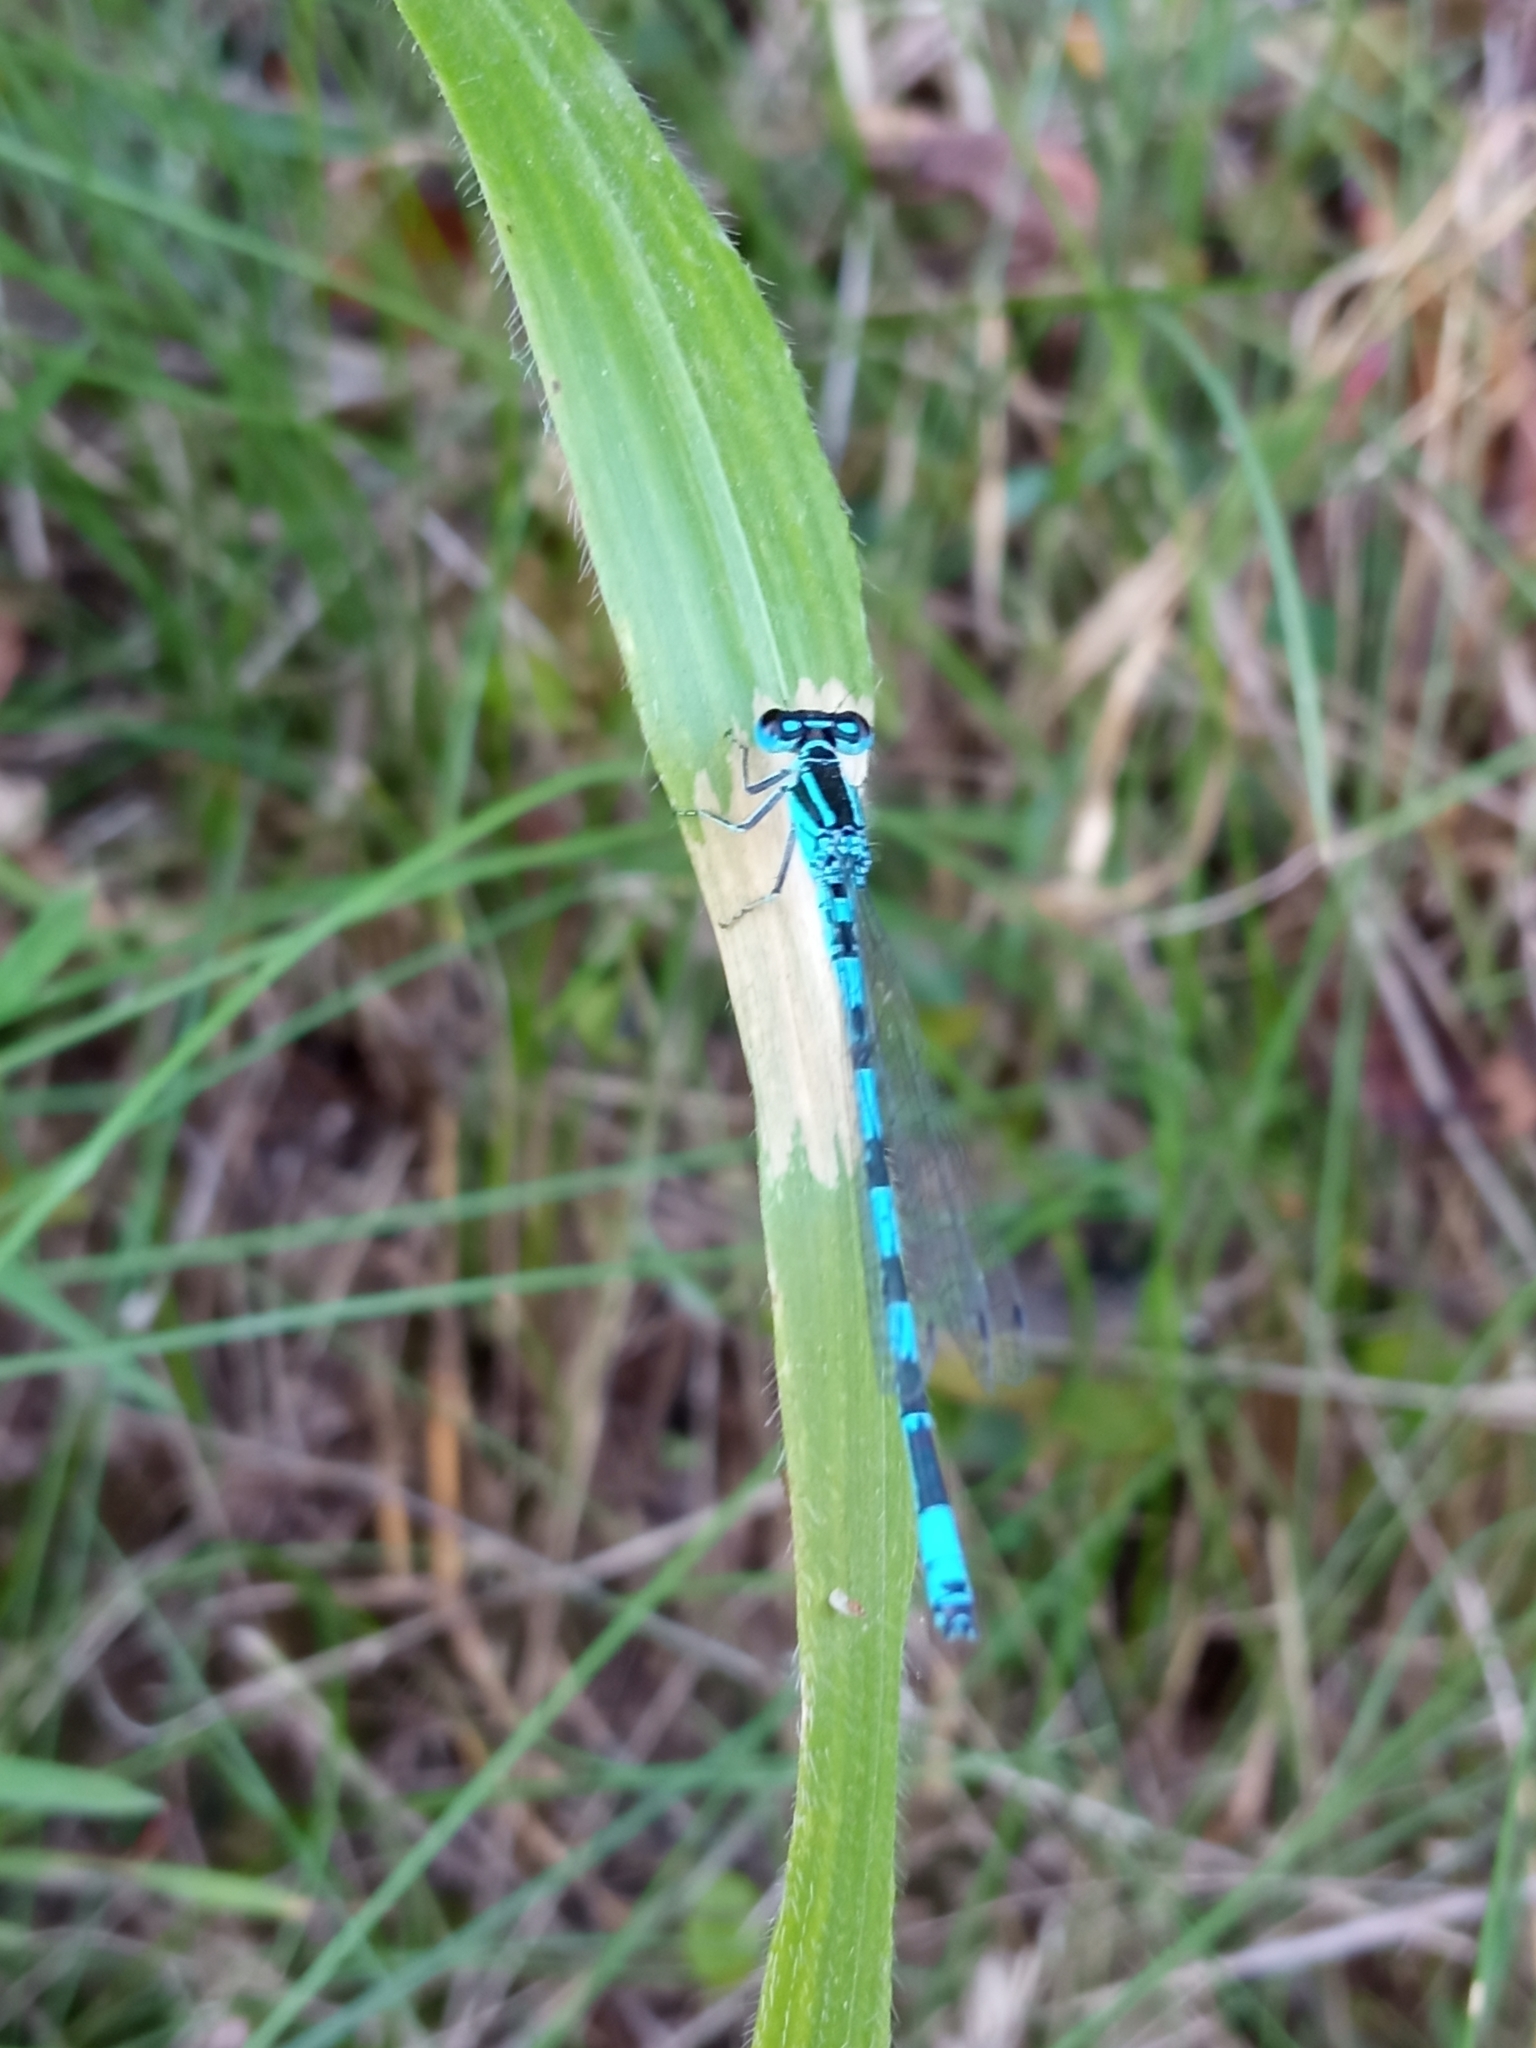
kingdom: Animalia
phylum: Arthropoda
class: Insecta
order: Odonata
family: Coenagrionidae
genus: Coenagrion
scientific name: Coenagrion mercuriale
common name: Southern damselfly
